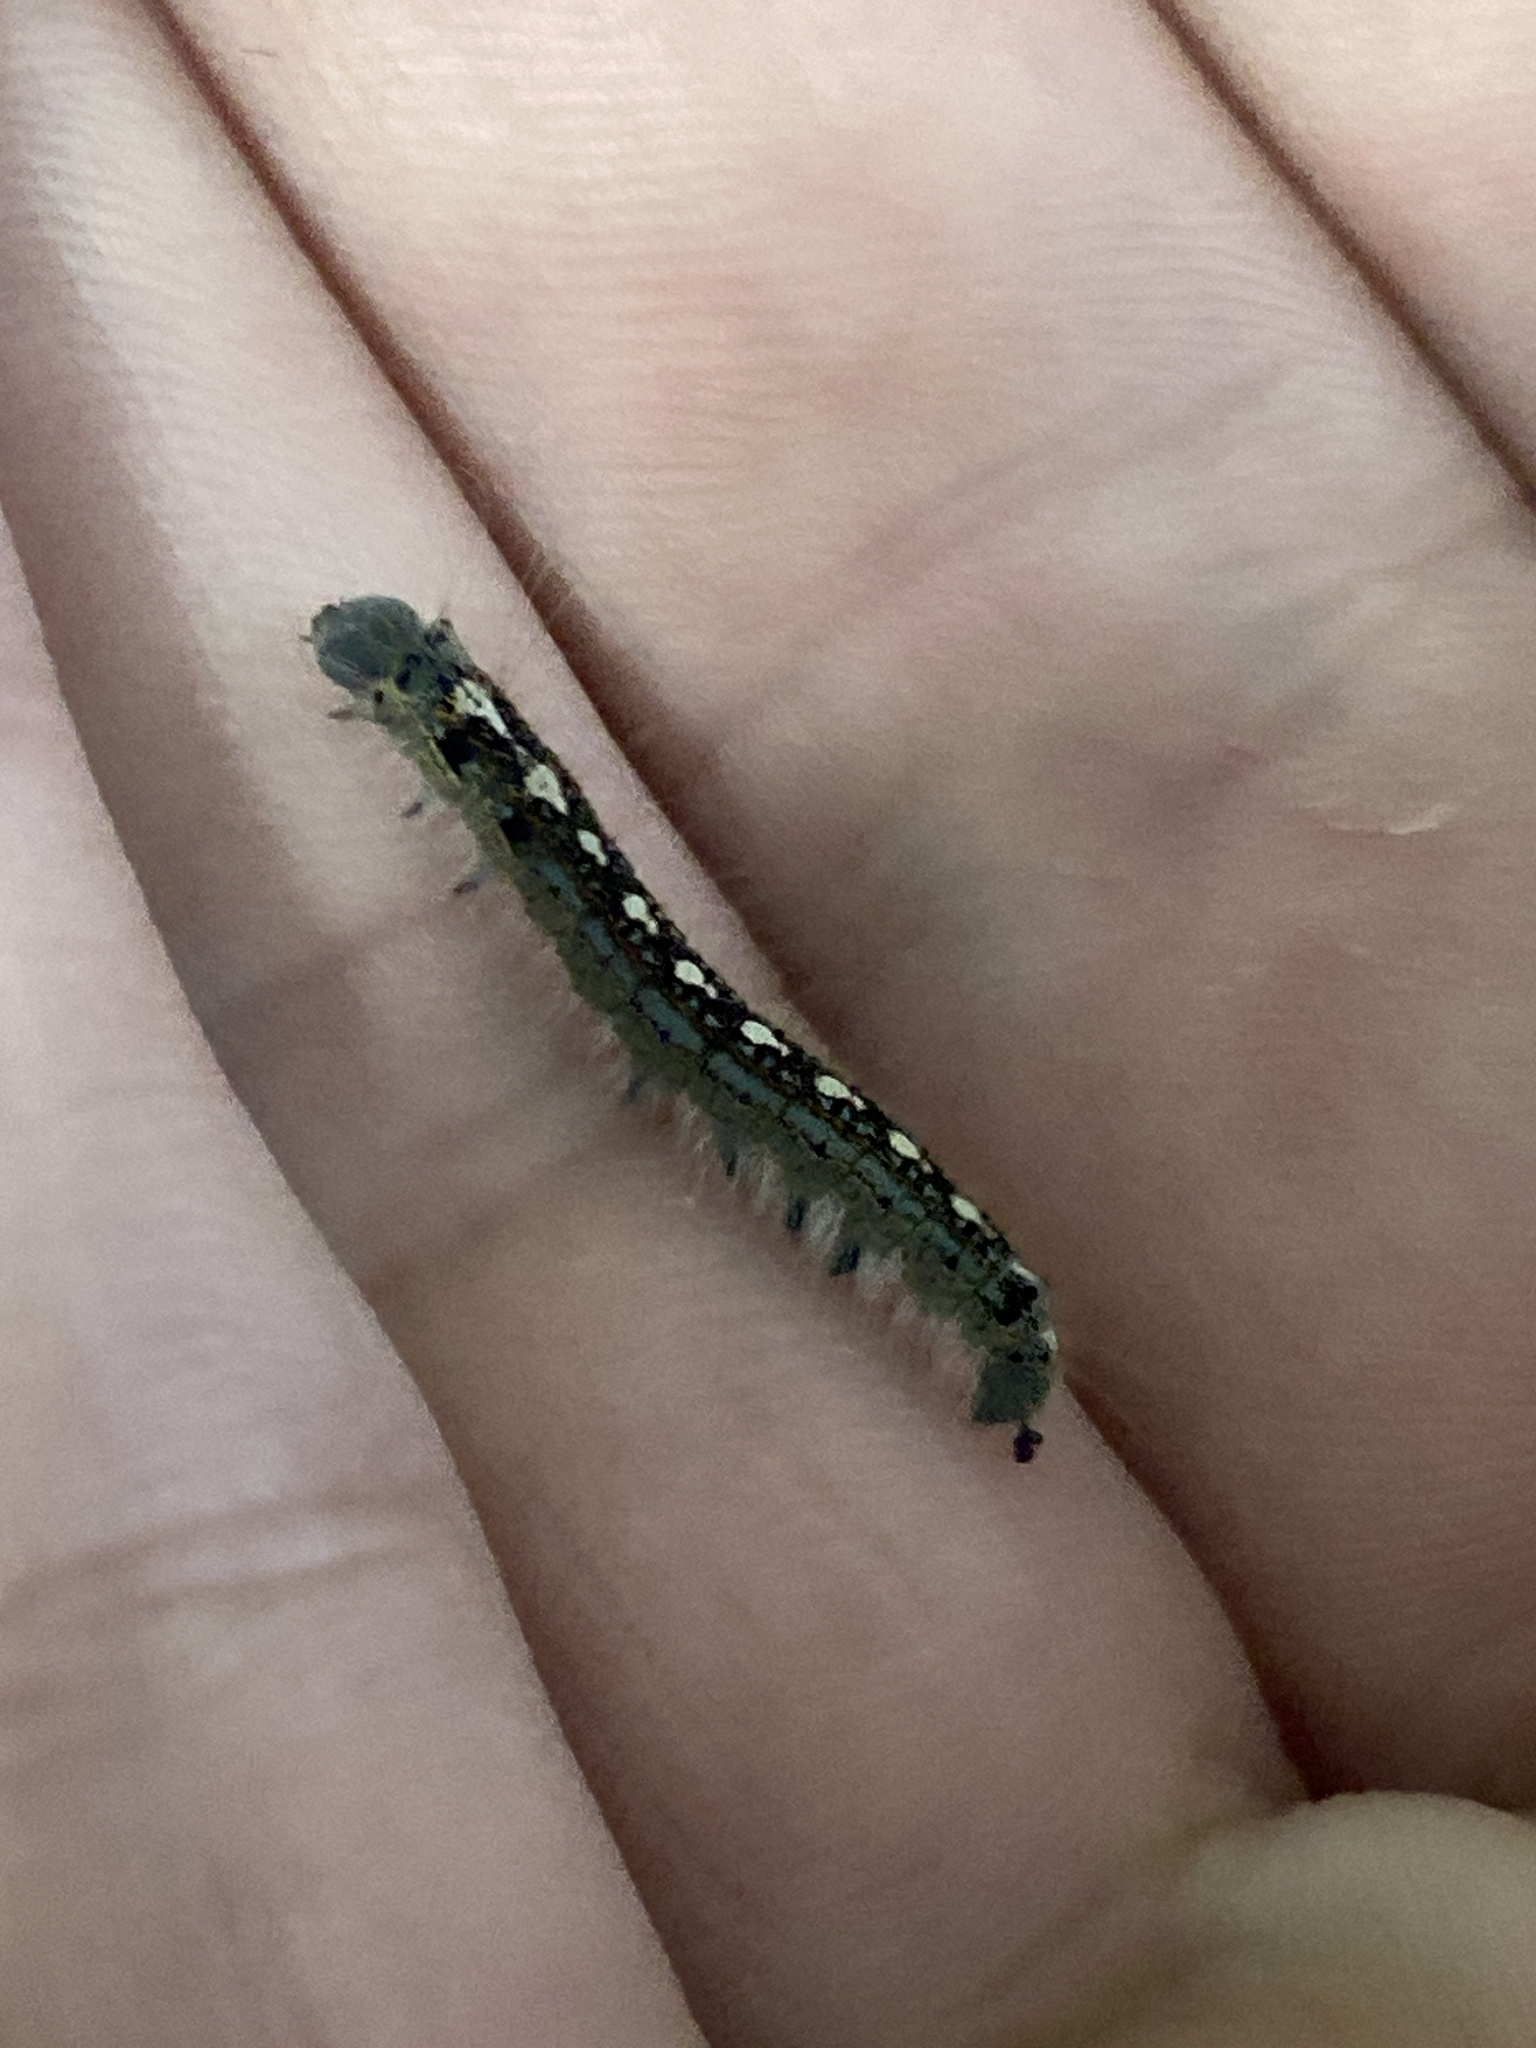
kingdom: Animalia
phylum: Arthropoda
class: Insecta
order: Lepidoptera
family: Lasiocampidae
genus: Malacosoma
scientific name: Malacosoma disstria
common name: Forest tent caterpillar
